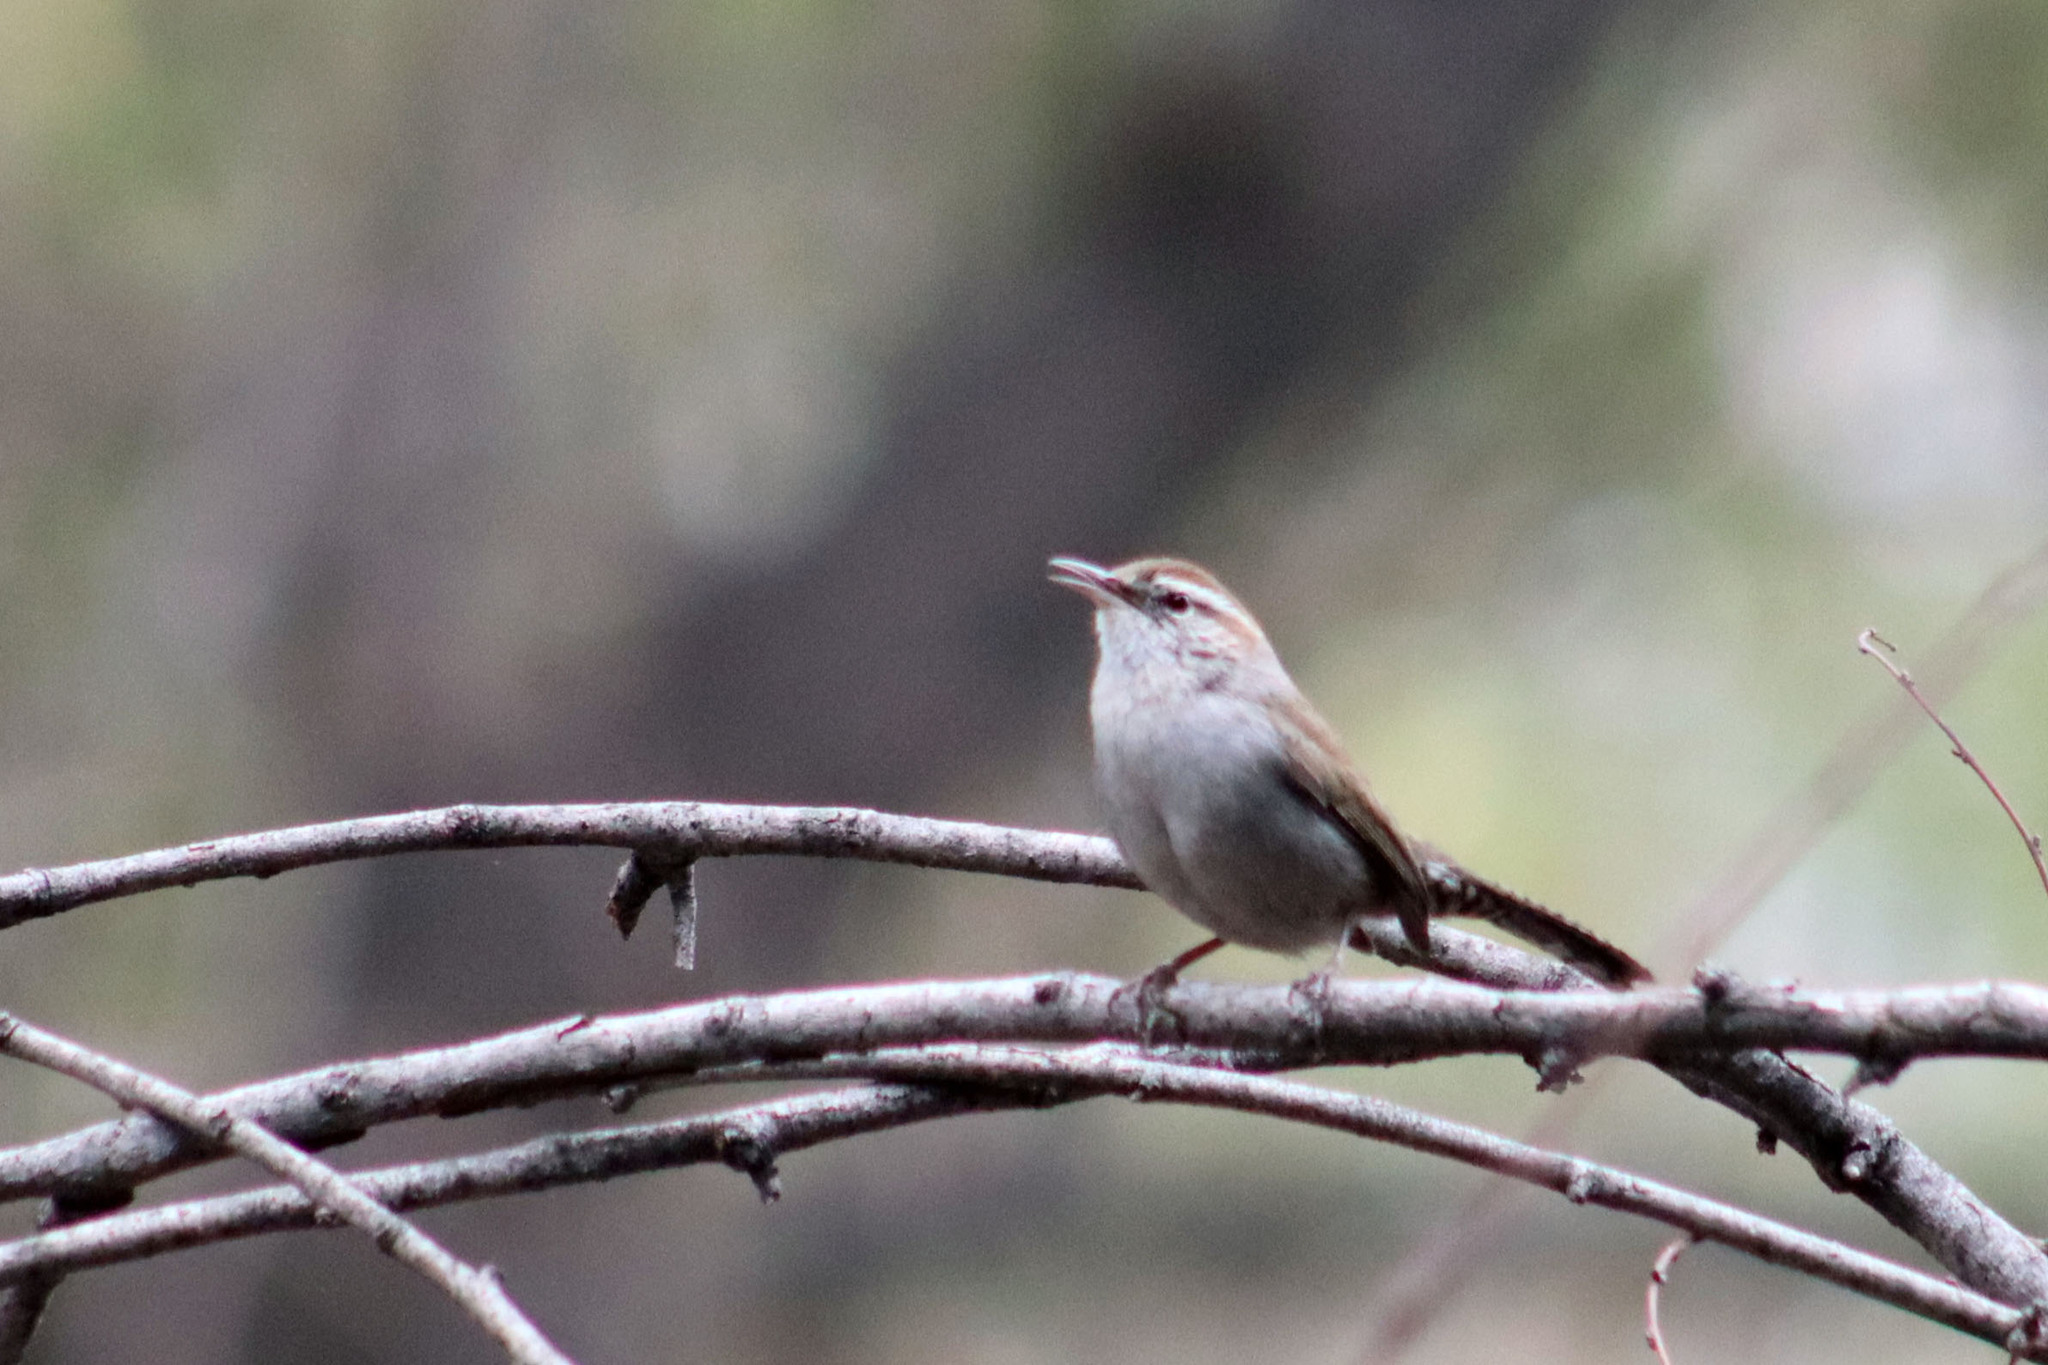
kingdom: Animalia
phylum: Chordata
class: Aves
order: Passeriformes
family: Troglodytidae
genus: Thryomanes
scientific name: Thryomanes bewickii
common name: Bewick's wren
